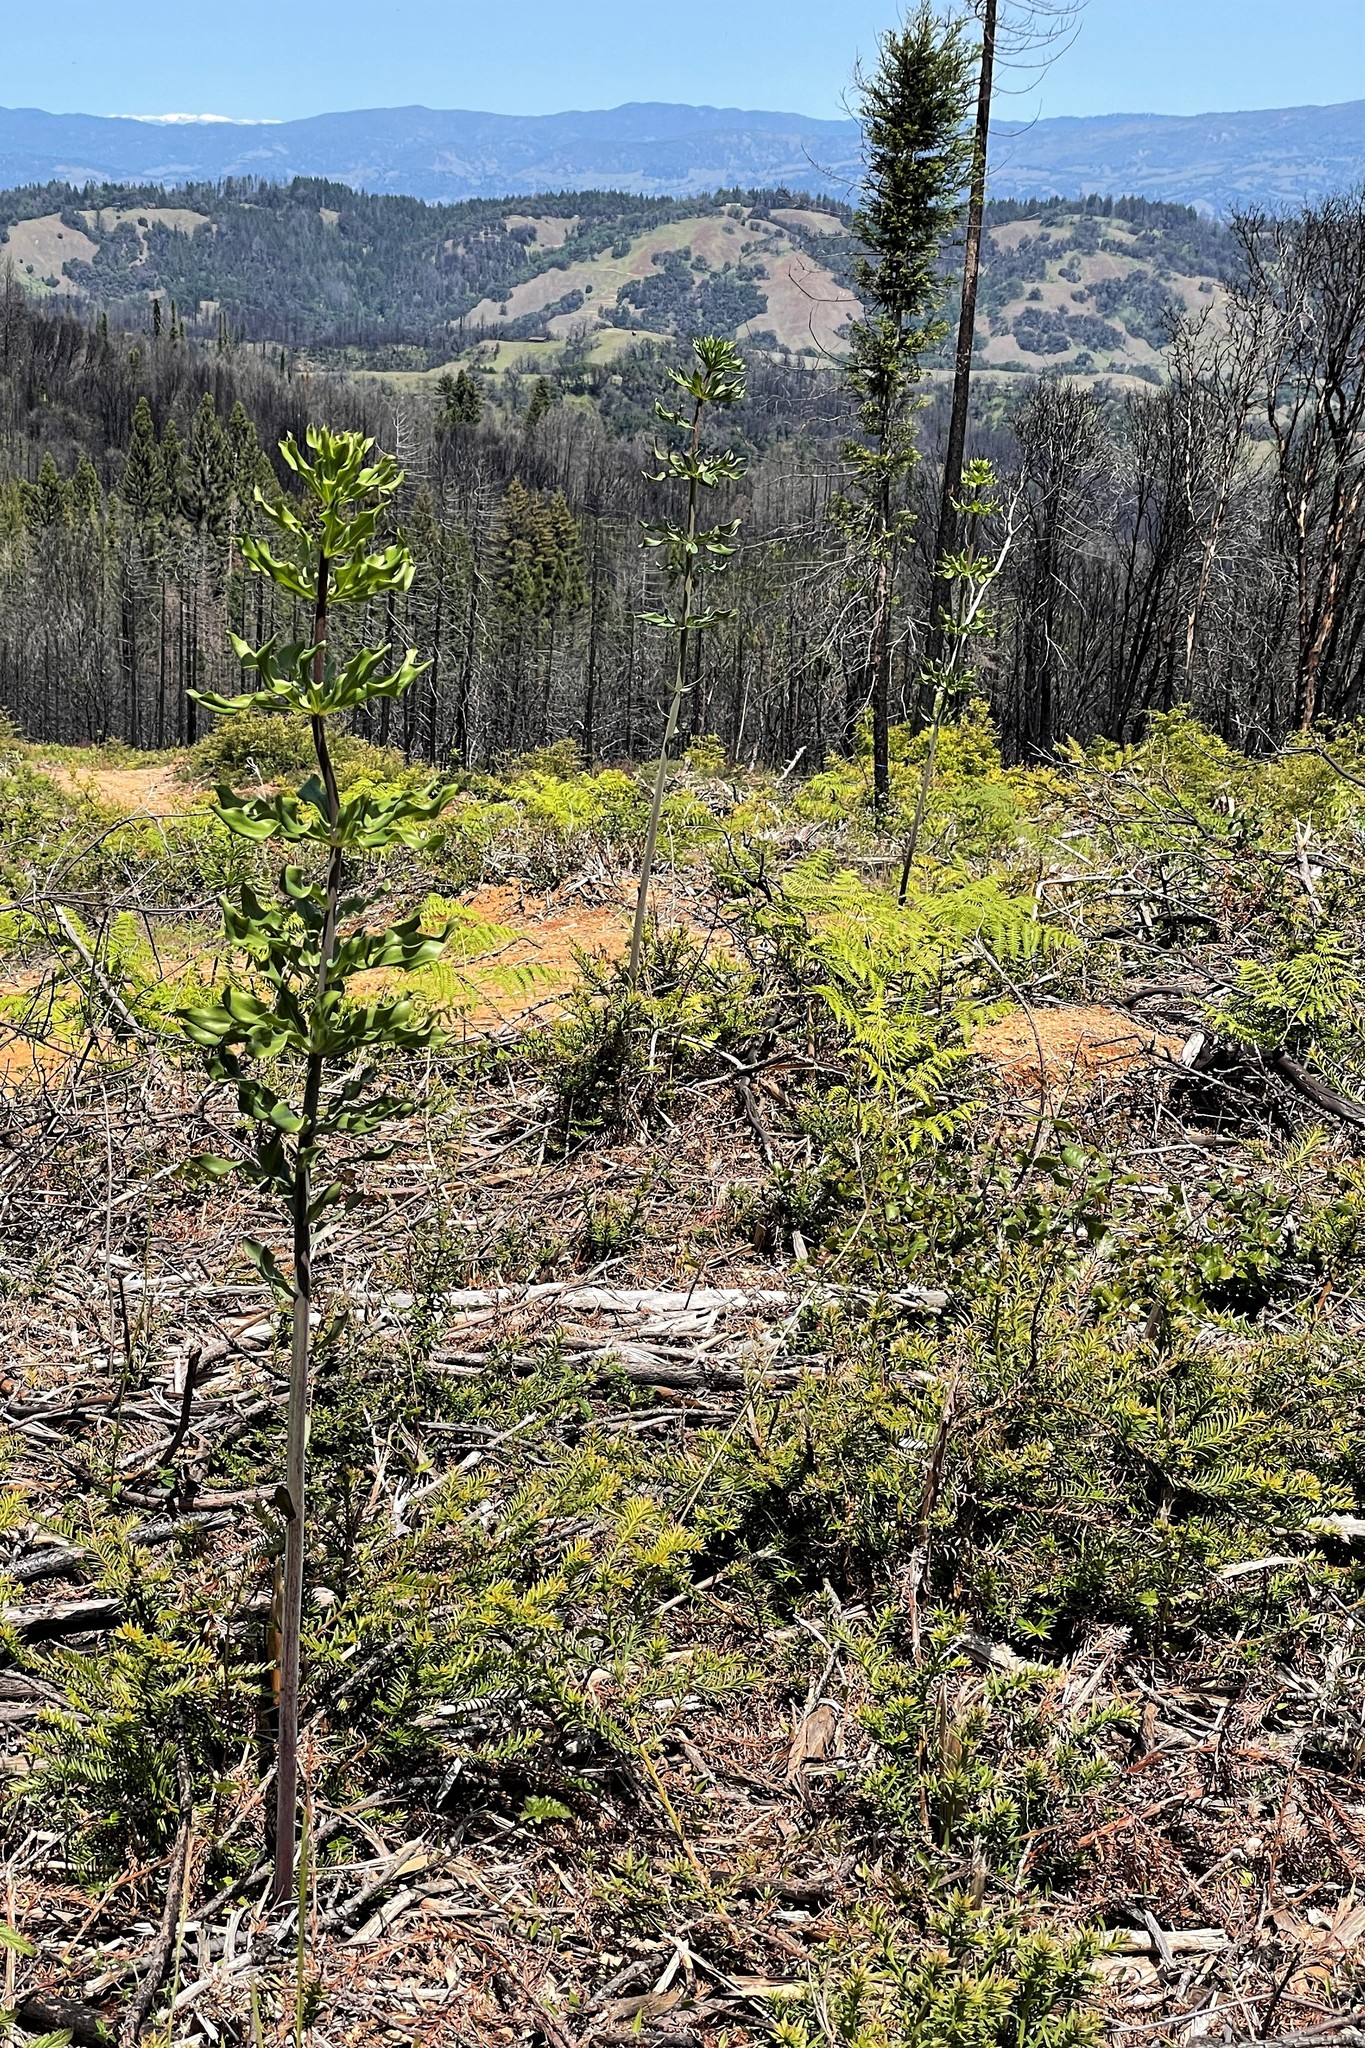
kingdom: Plantae
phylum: Tracheophyta
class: Liliopsida
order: Liliales
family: Liliaceae
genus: Lilium
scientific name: Lilium rubescens
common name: Chamise lily
